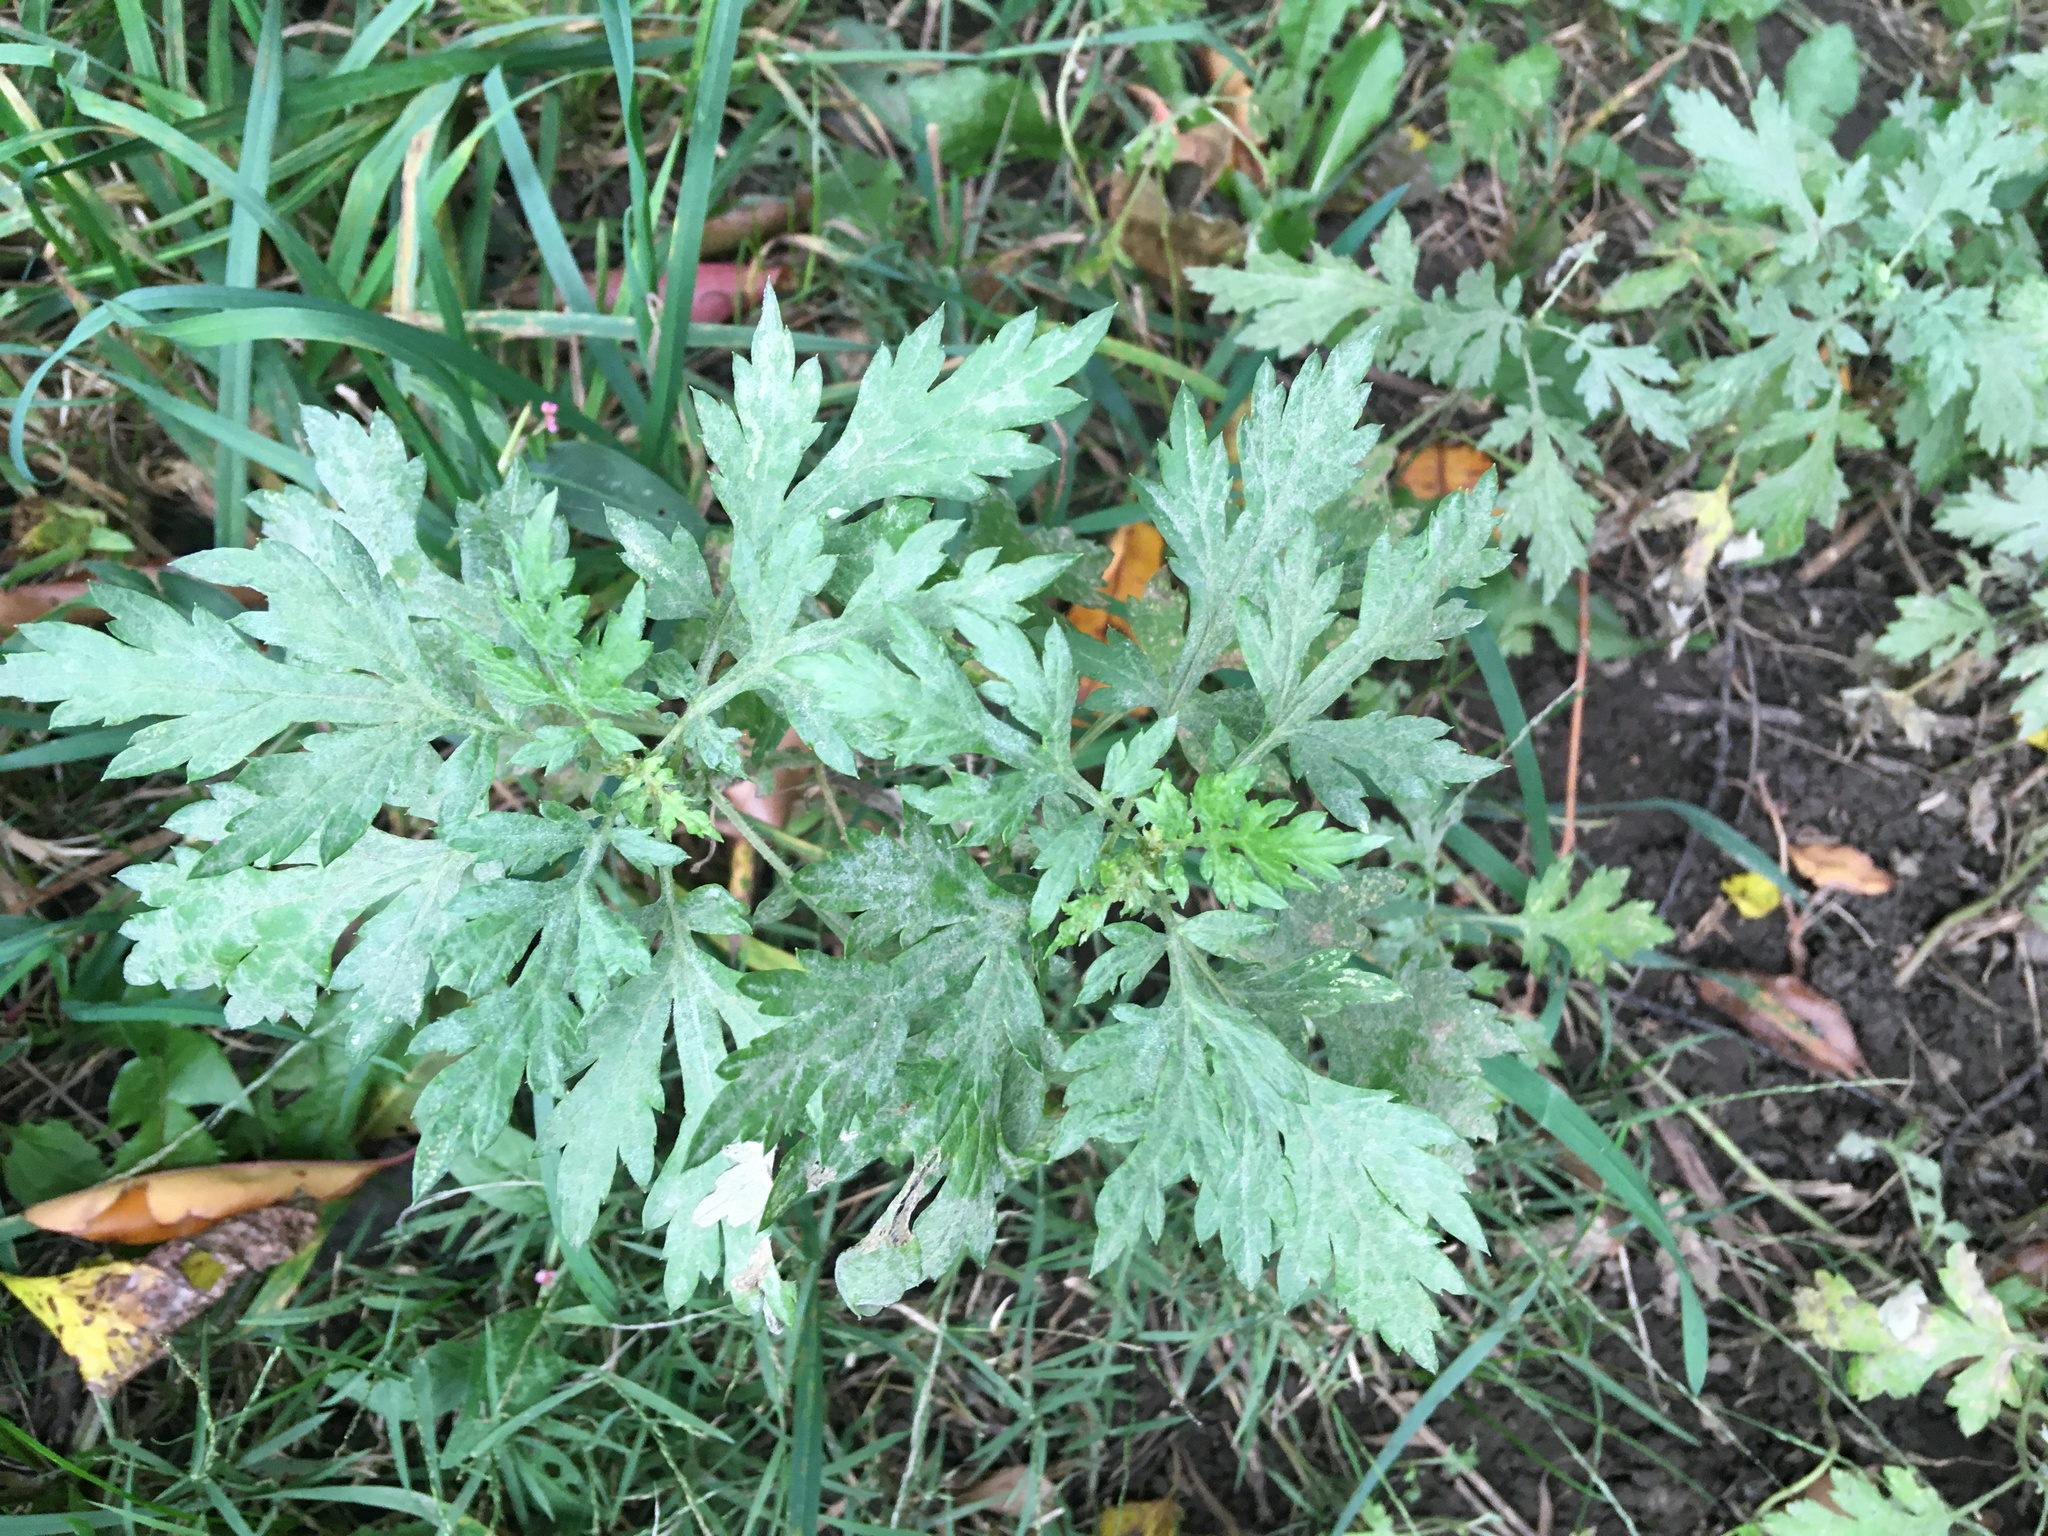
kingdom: Plantae
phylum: Tracheophyta
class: Magnoliopsida
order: Asterales
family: Asteraceae
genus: Artemisia
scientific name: Artemisia vulgaris
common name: Mugwort
